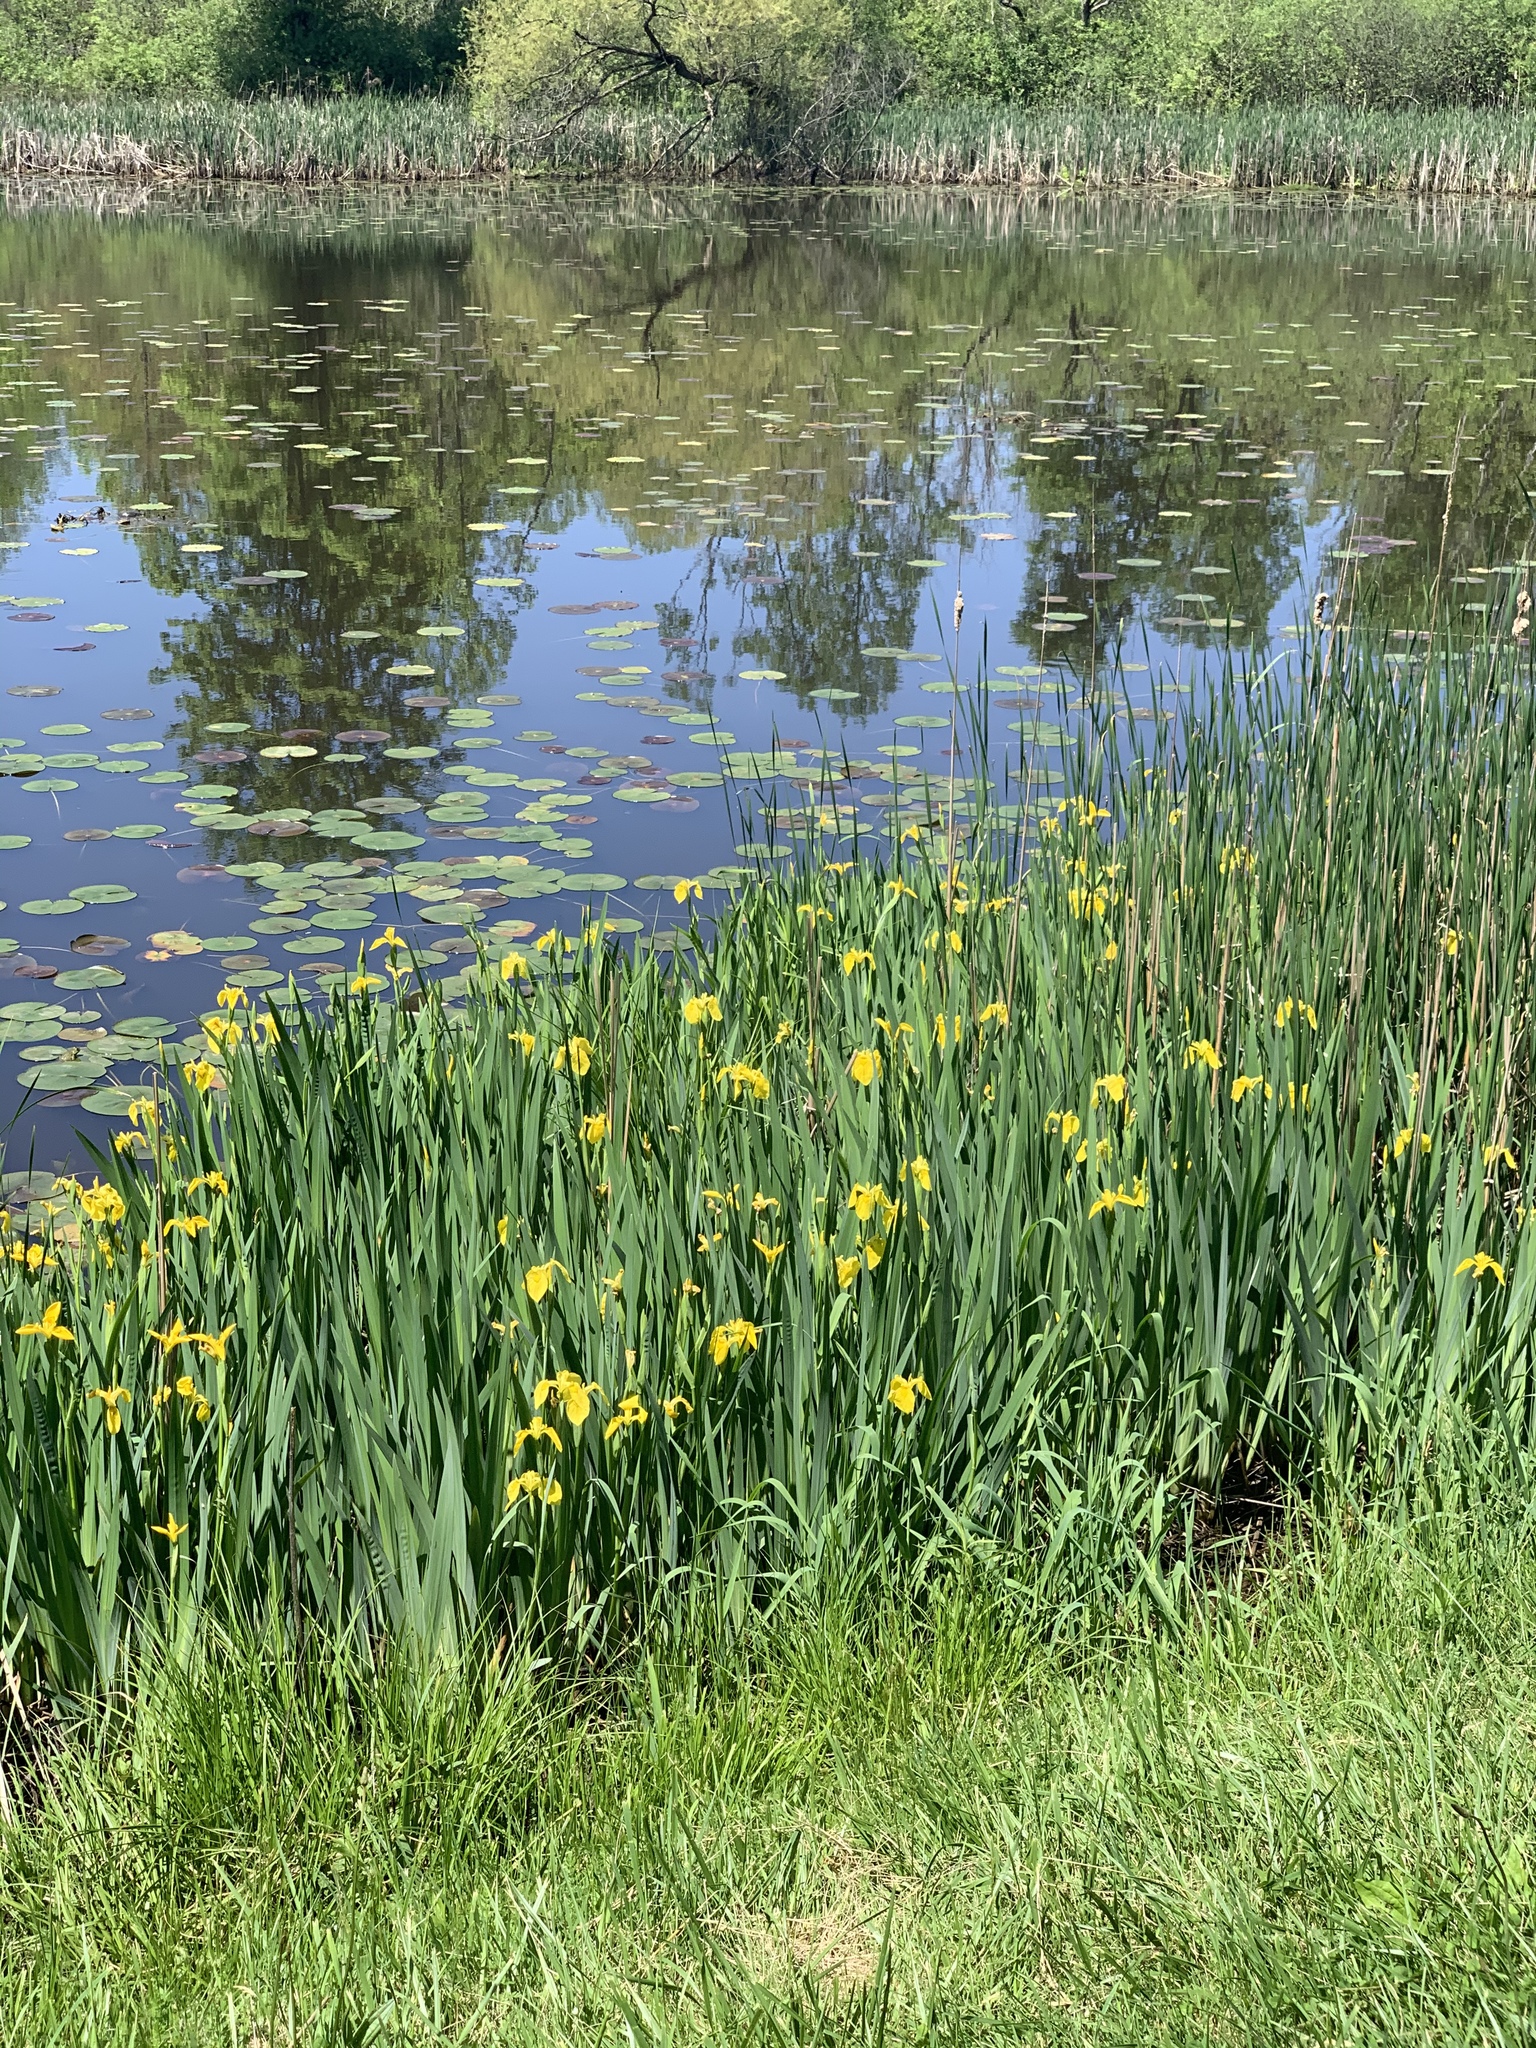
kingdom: Plantae
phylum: Tracheophyta
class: Liliopsida
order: Asparagales
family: Iridaceae
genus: Iris
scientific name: Iris pseudacorus
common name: Yellow flag
